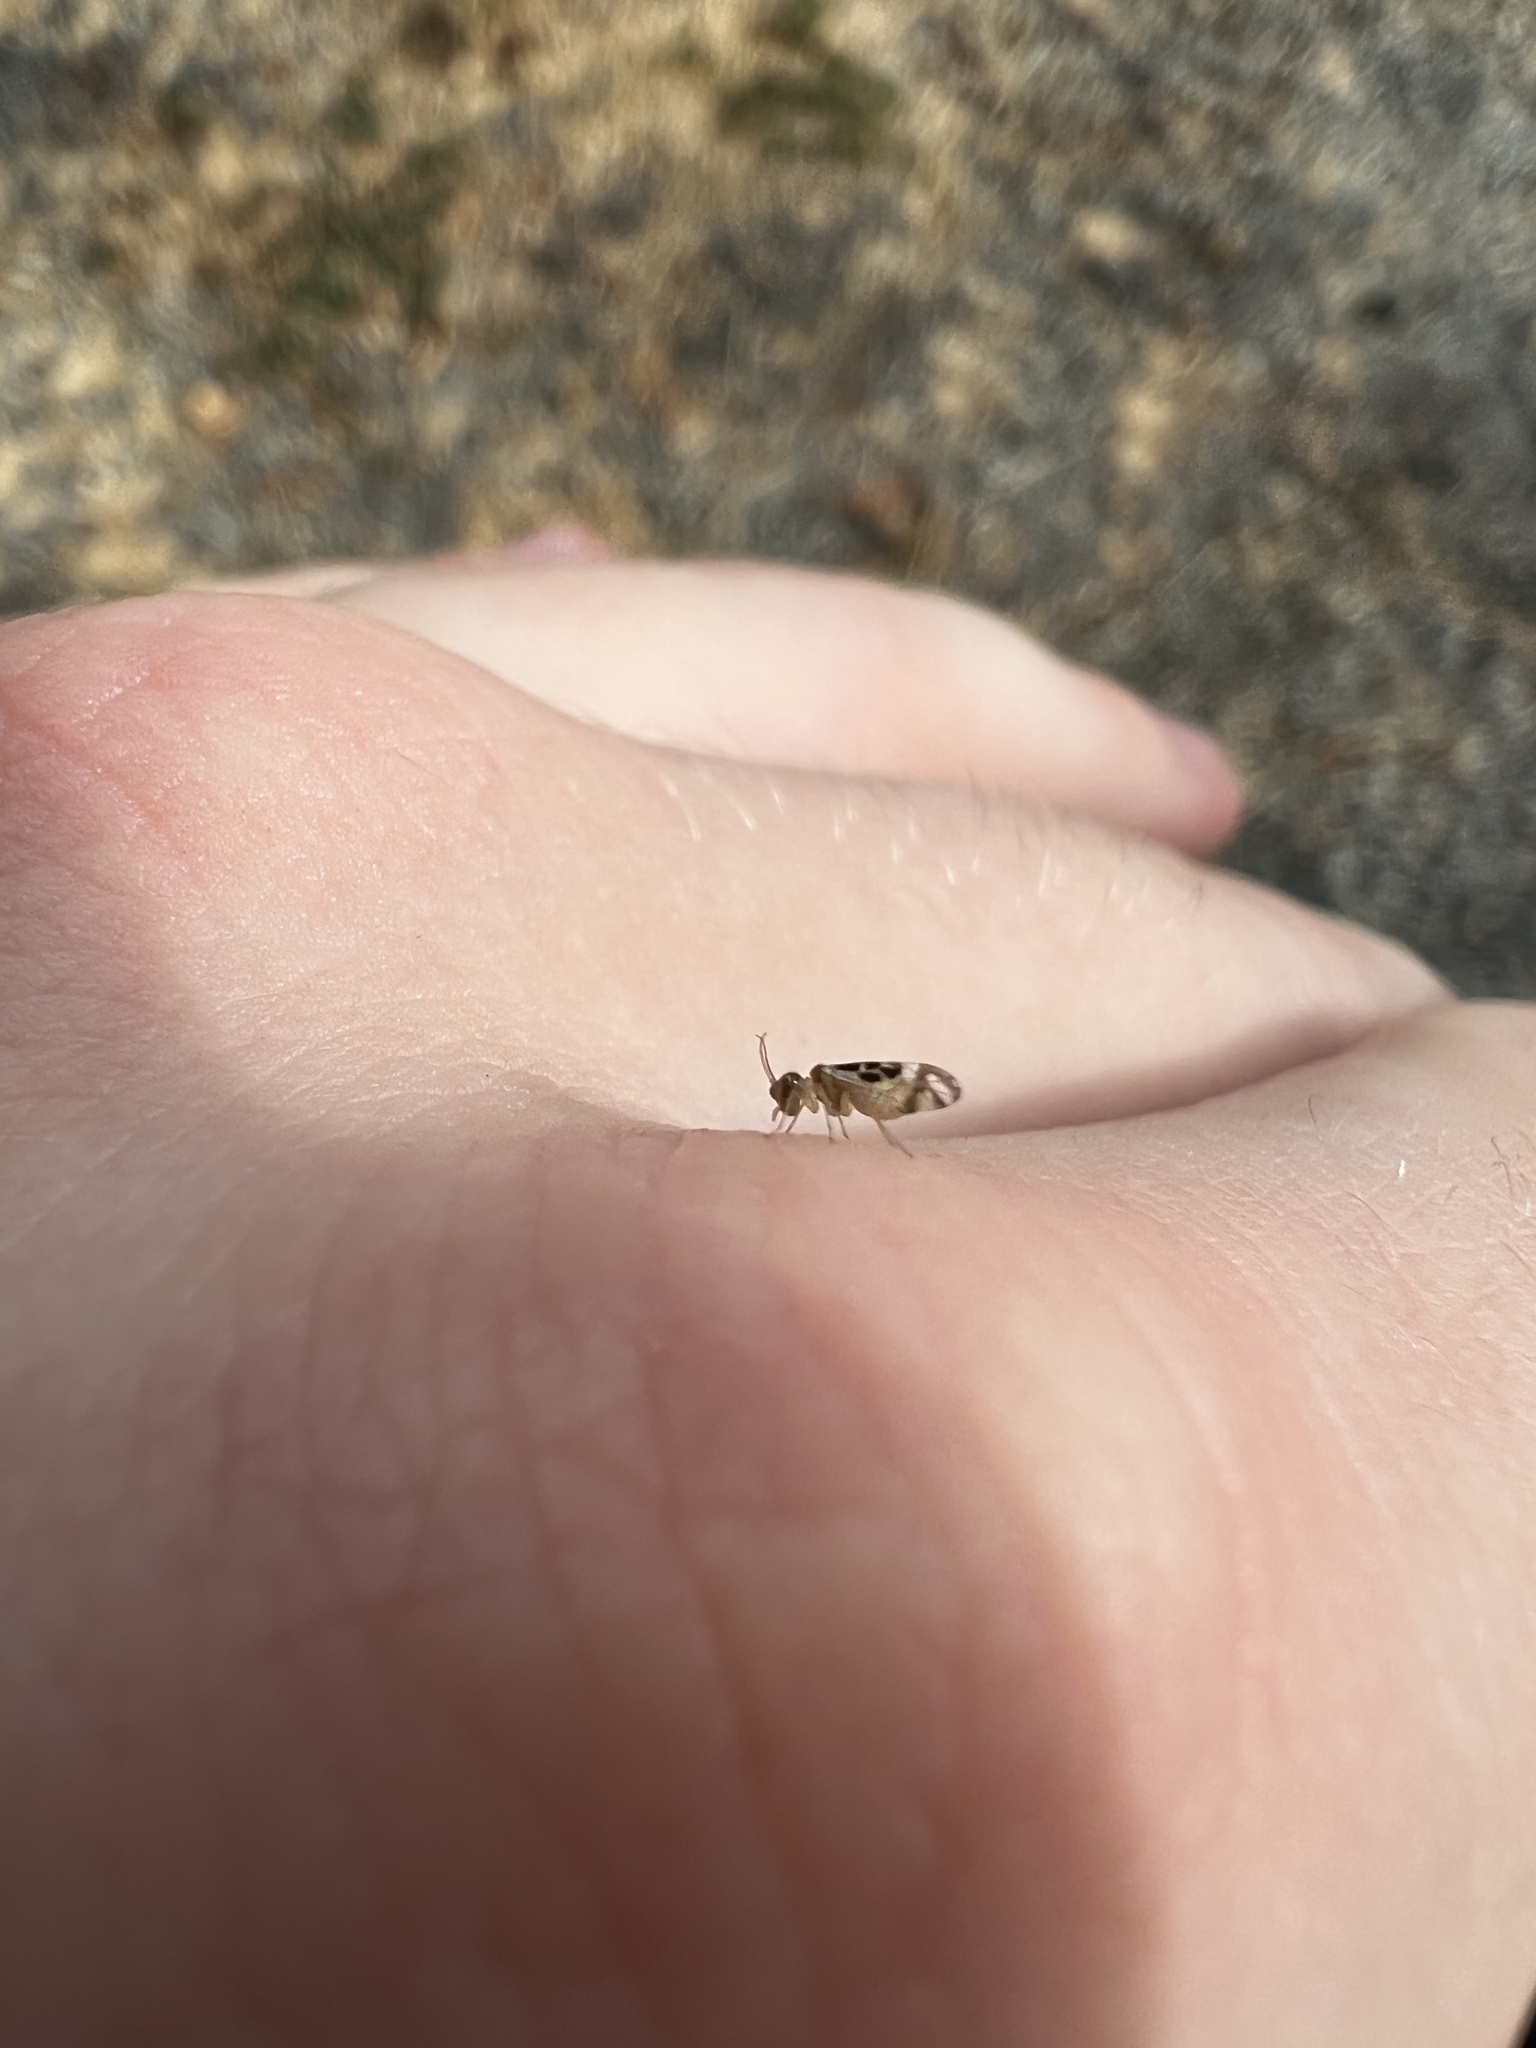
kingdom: Animalia
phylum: Arthropoda
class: Insecta
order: Psocodea
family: Stenopsocidae
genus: Graphopsocus
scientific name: Graphopsocus cruciatus
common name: Lizard bark louse
